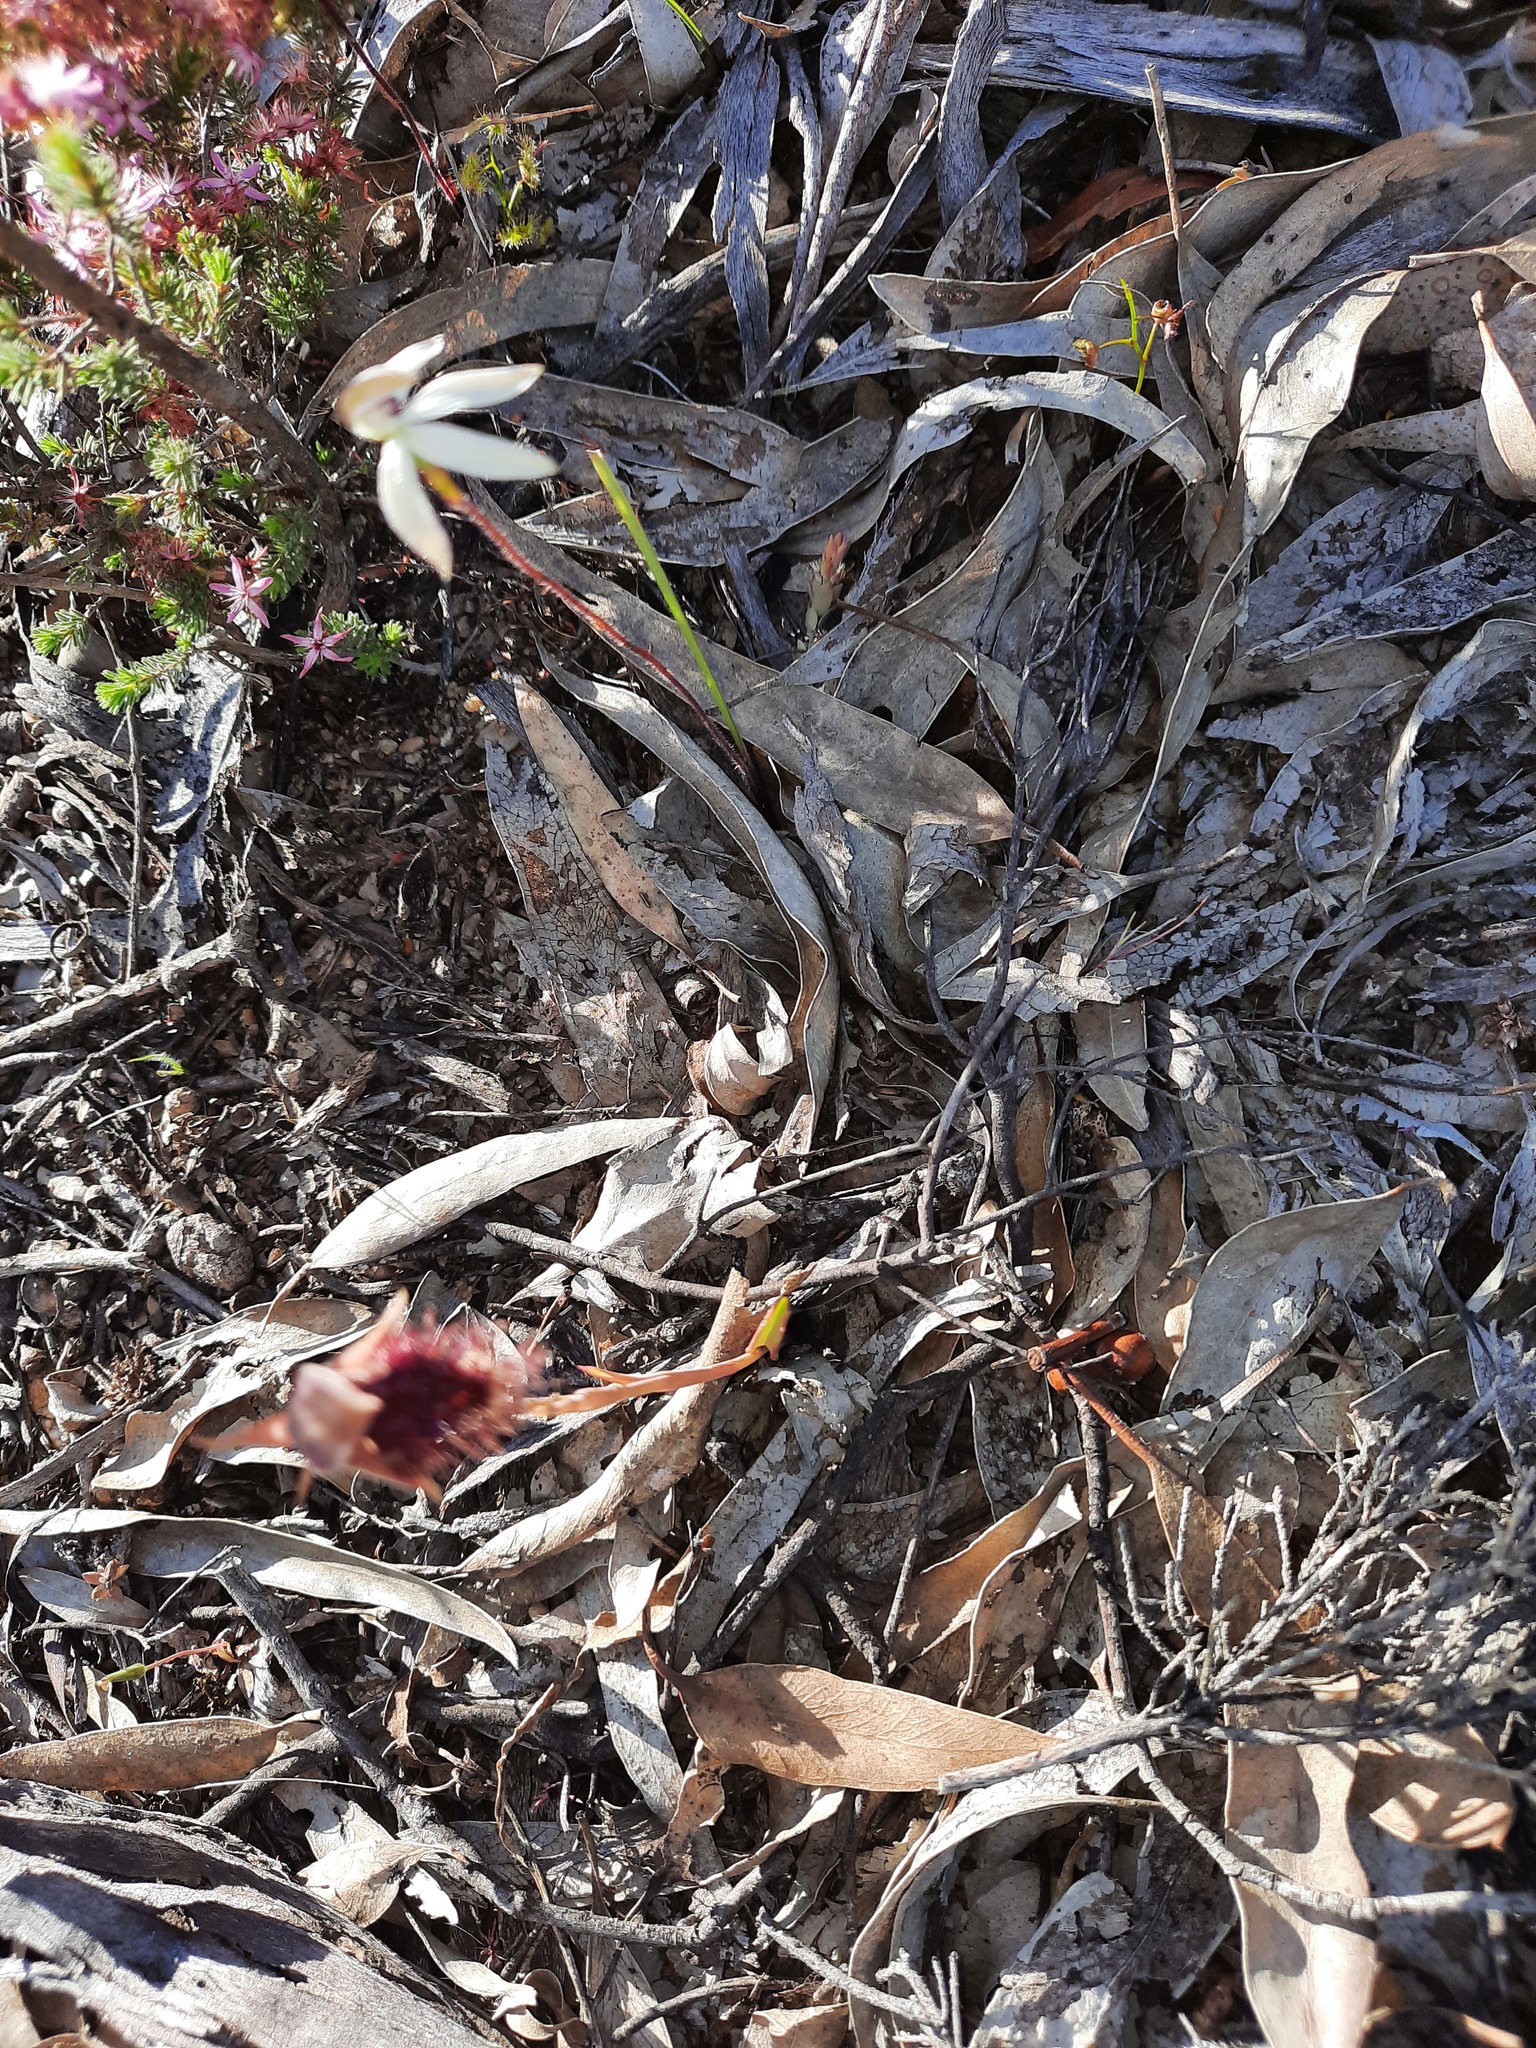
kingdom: Plantae
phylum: Tracheophyta
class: Liliopsida
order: Asparagales
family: Orchidaceae
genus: Calochilus
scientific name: Calochilus robertsonii
